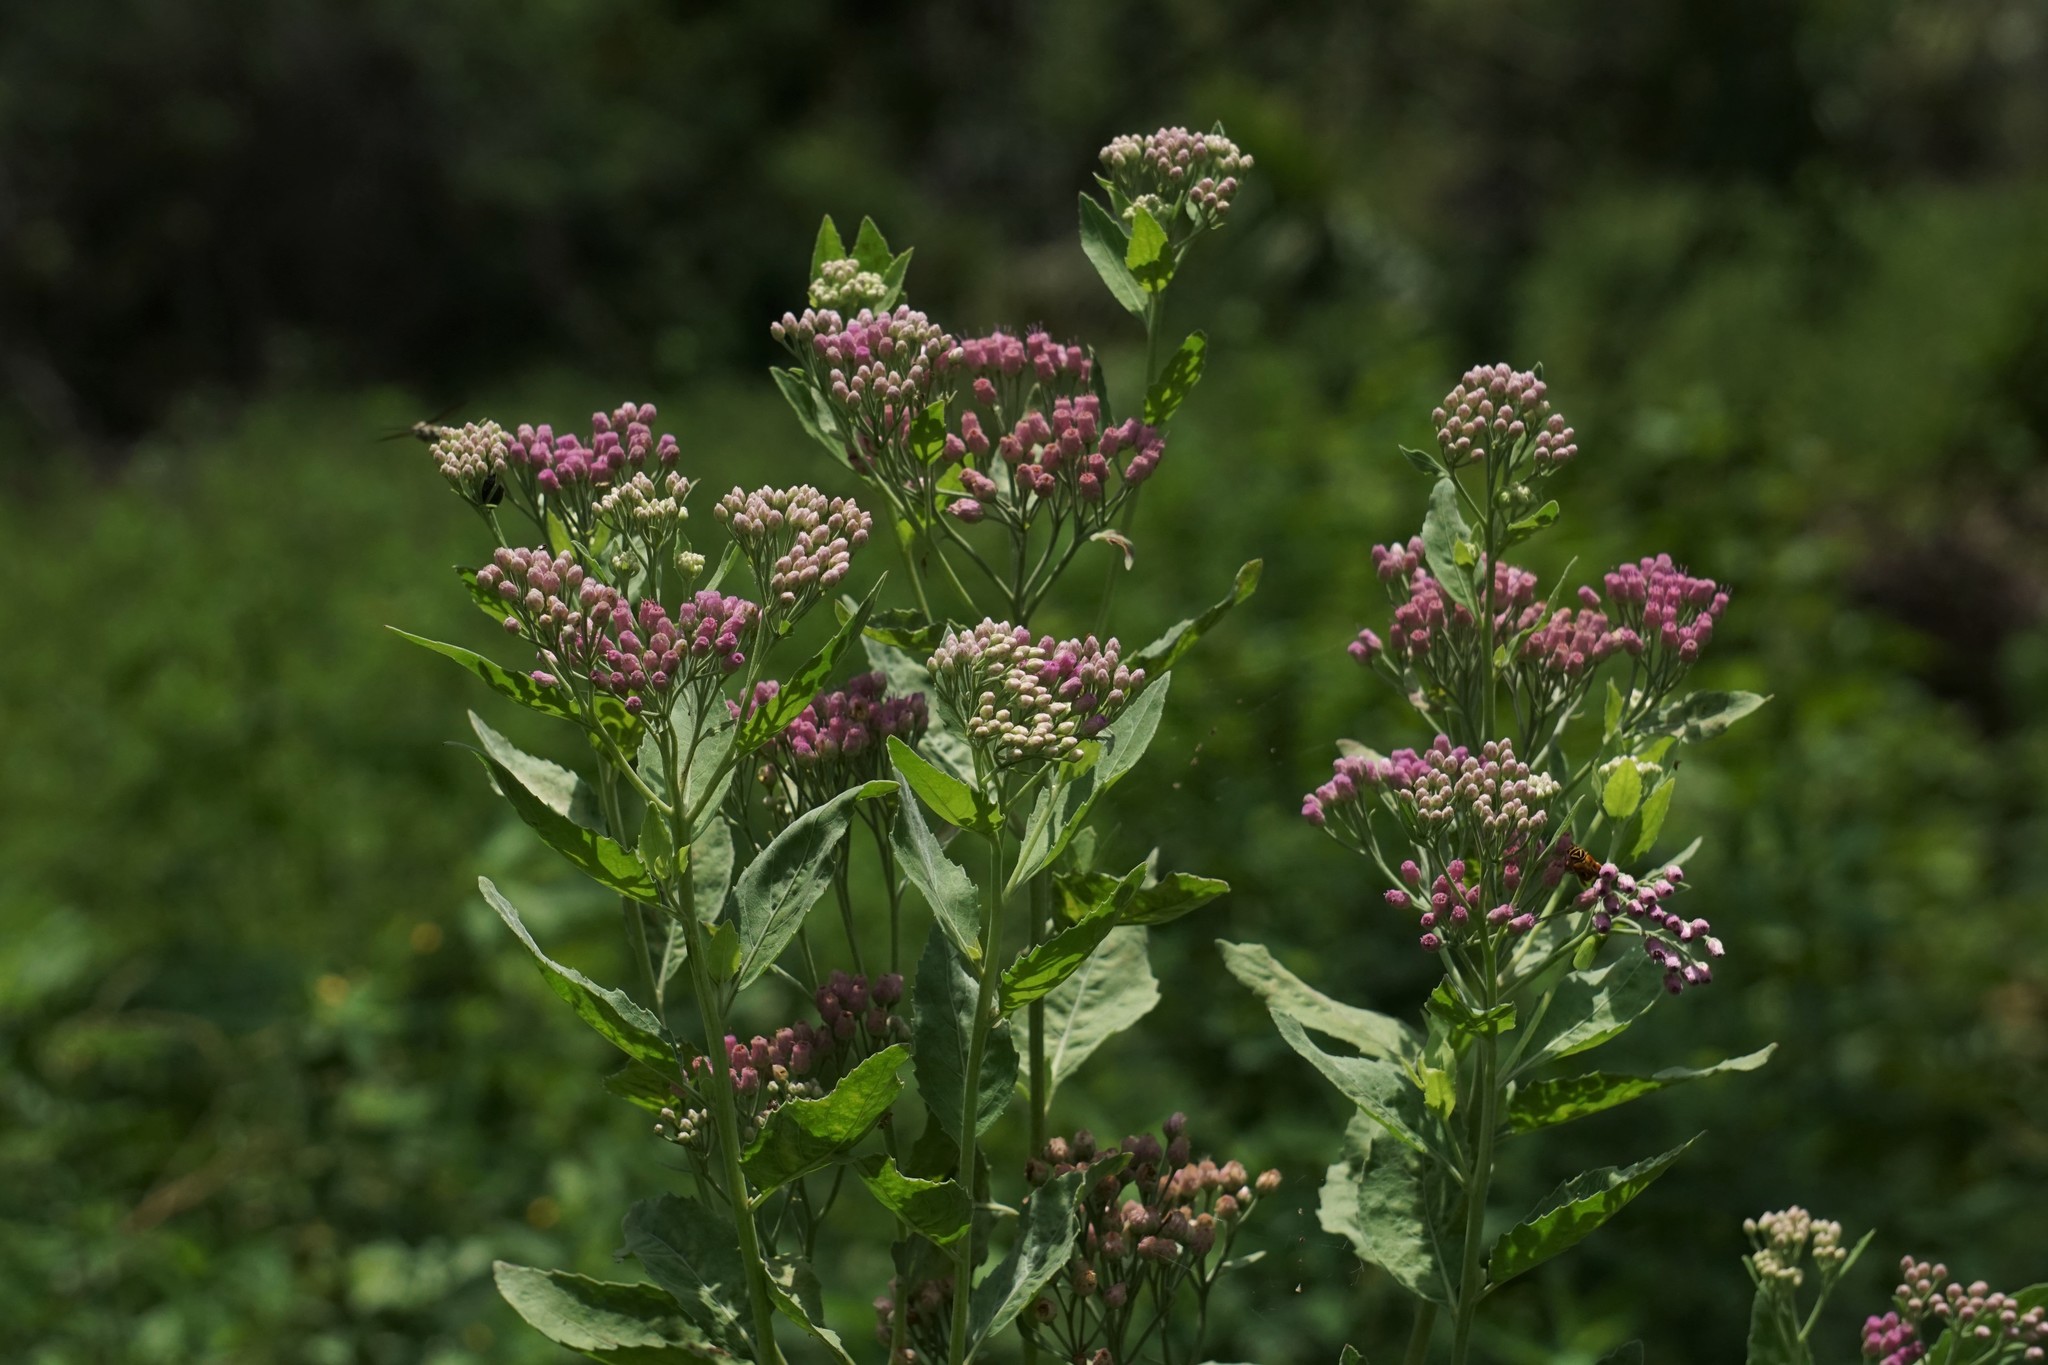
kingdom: Plantae
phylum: Tracheophyta
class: Magnoliopsida
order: Asterales
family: Asteraceae
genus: Pluchea
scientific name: Pluchea odorata
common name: Saltmarsh fleabane
